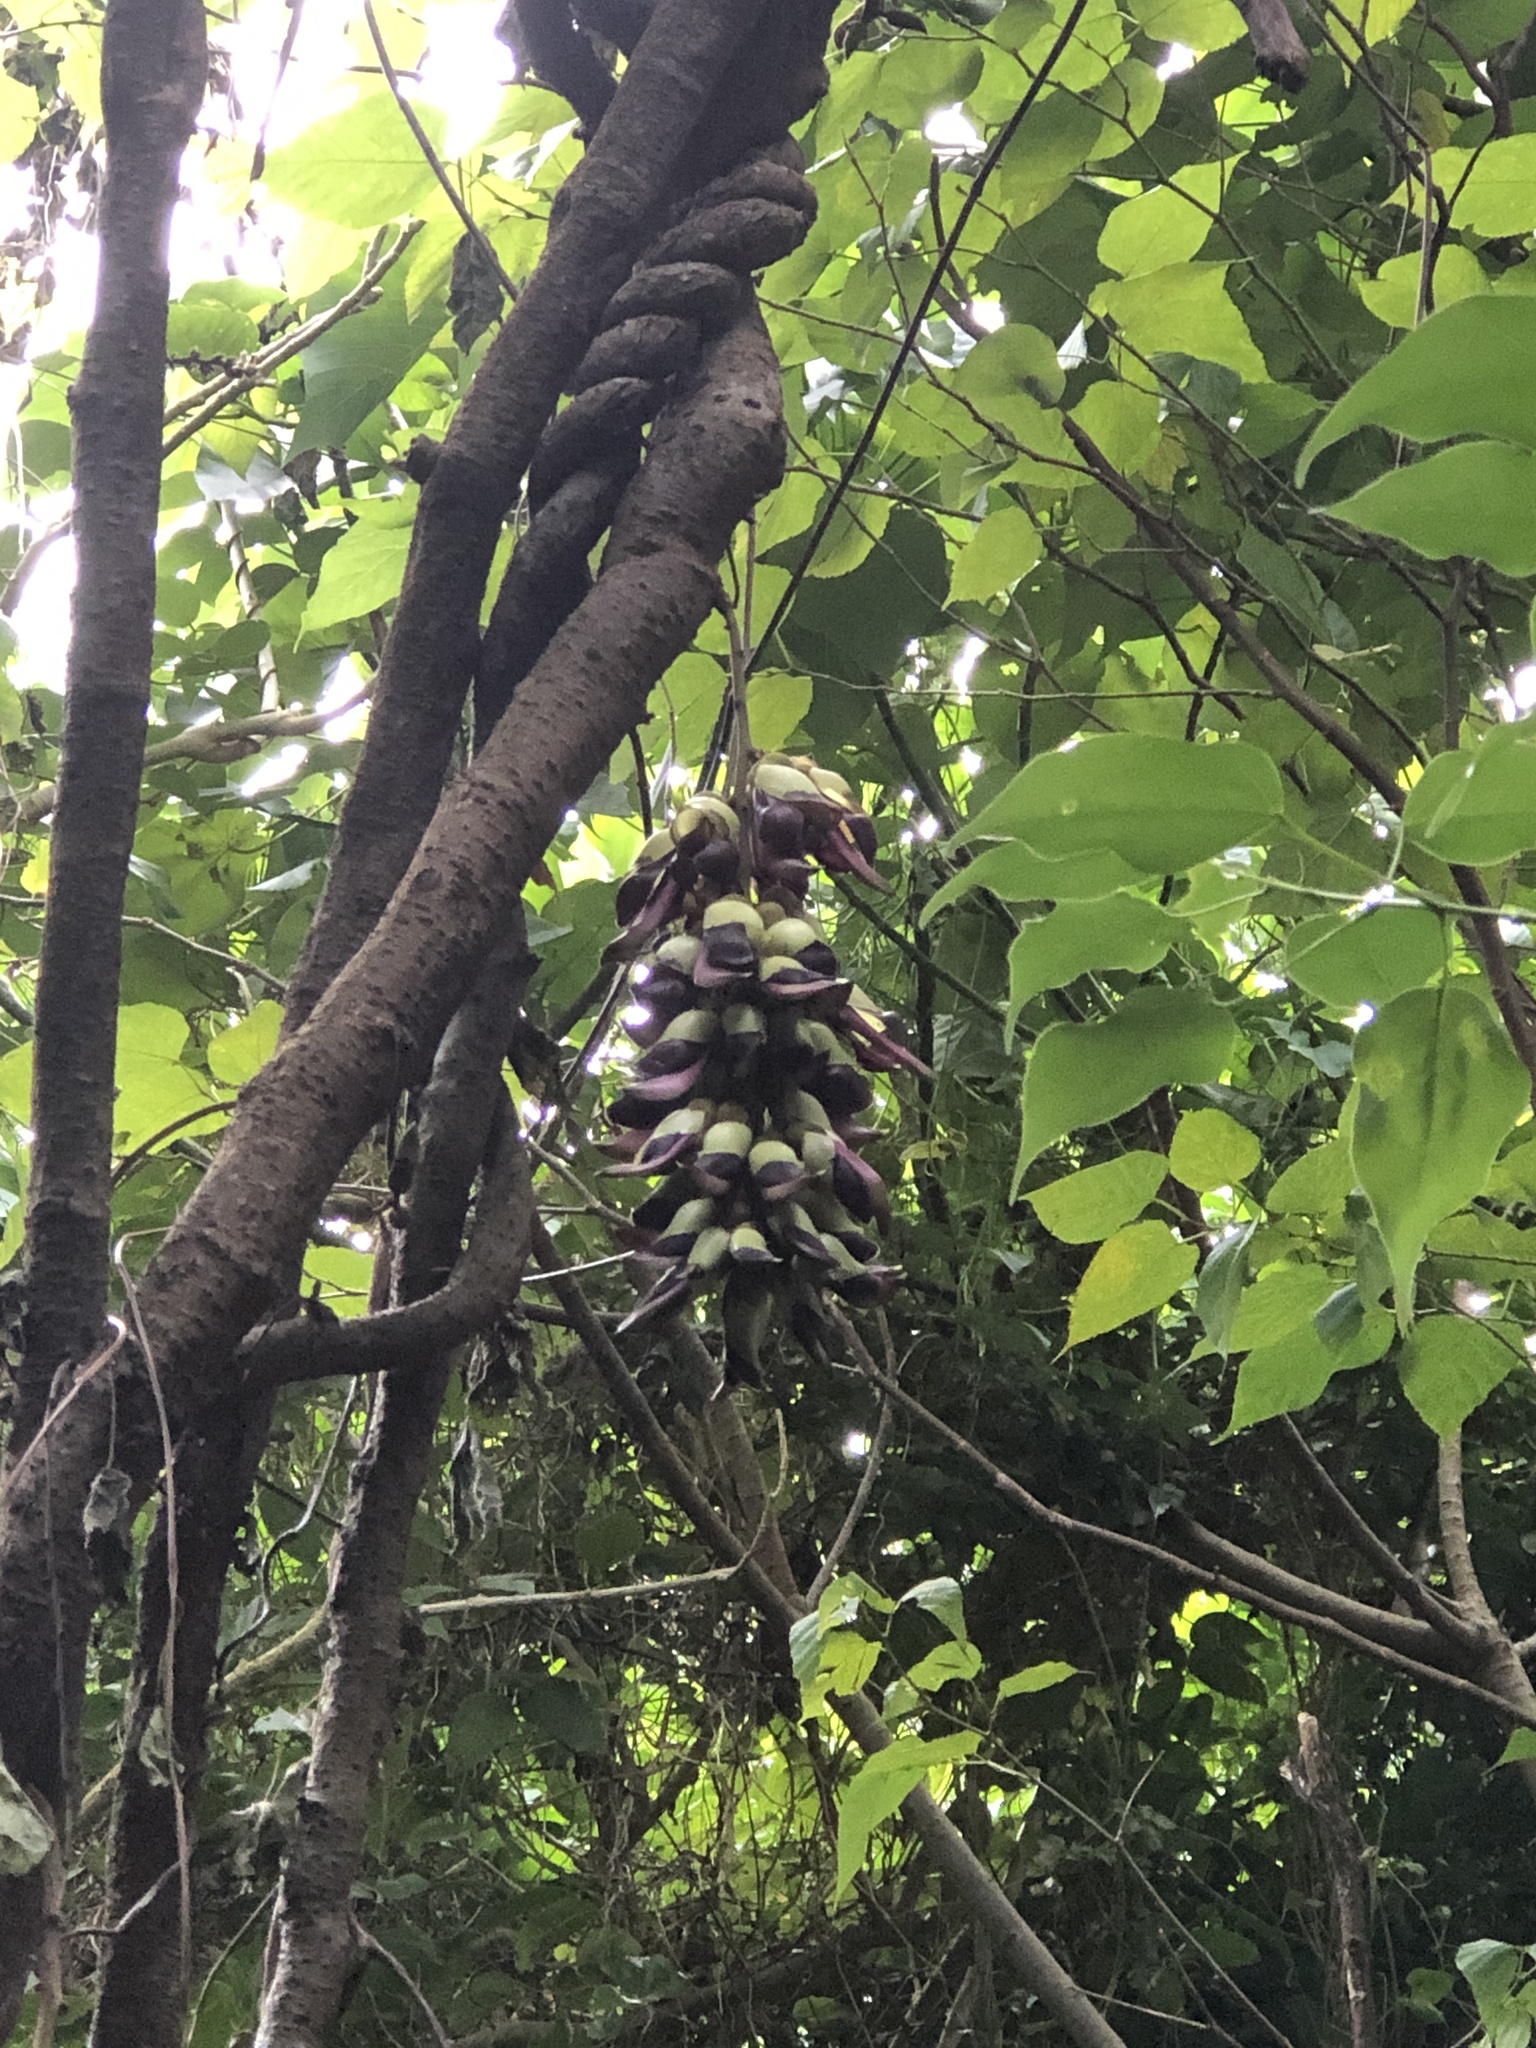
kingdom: Plantae
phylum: Tracheophyta
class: Magnoliopsida
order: Fabales
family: Fabaceae
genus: Mucuna
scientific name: Mucuna macrocarpa
